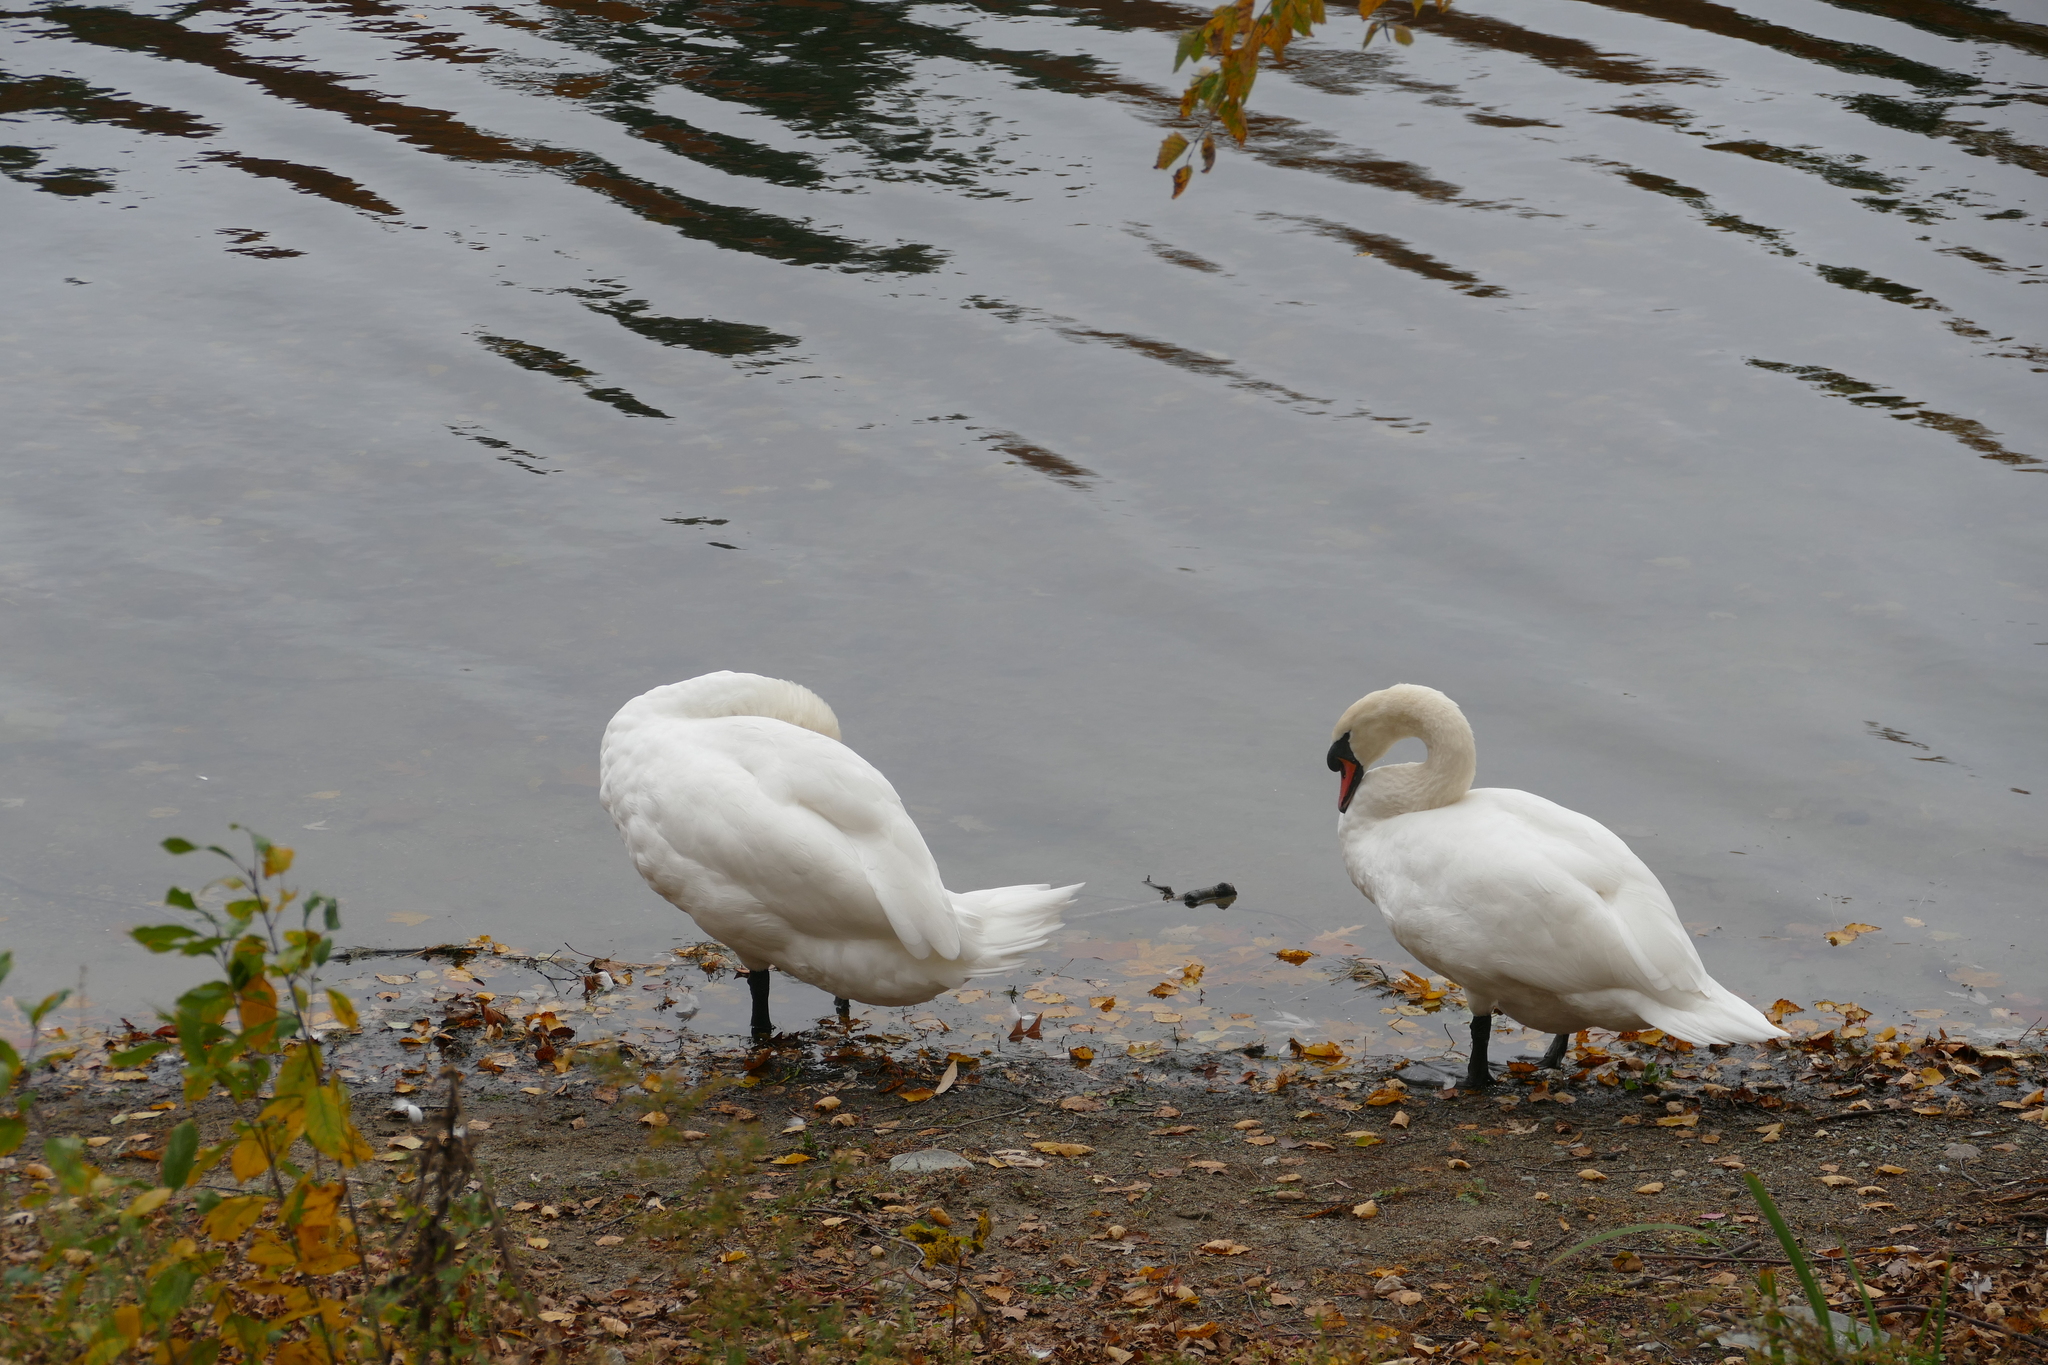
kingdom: Animalia
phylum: Chordata
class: Aves
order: Anseriformes
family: Anatidae
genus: Cygnus
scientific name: Cygnus olor
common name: Mute swan
